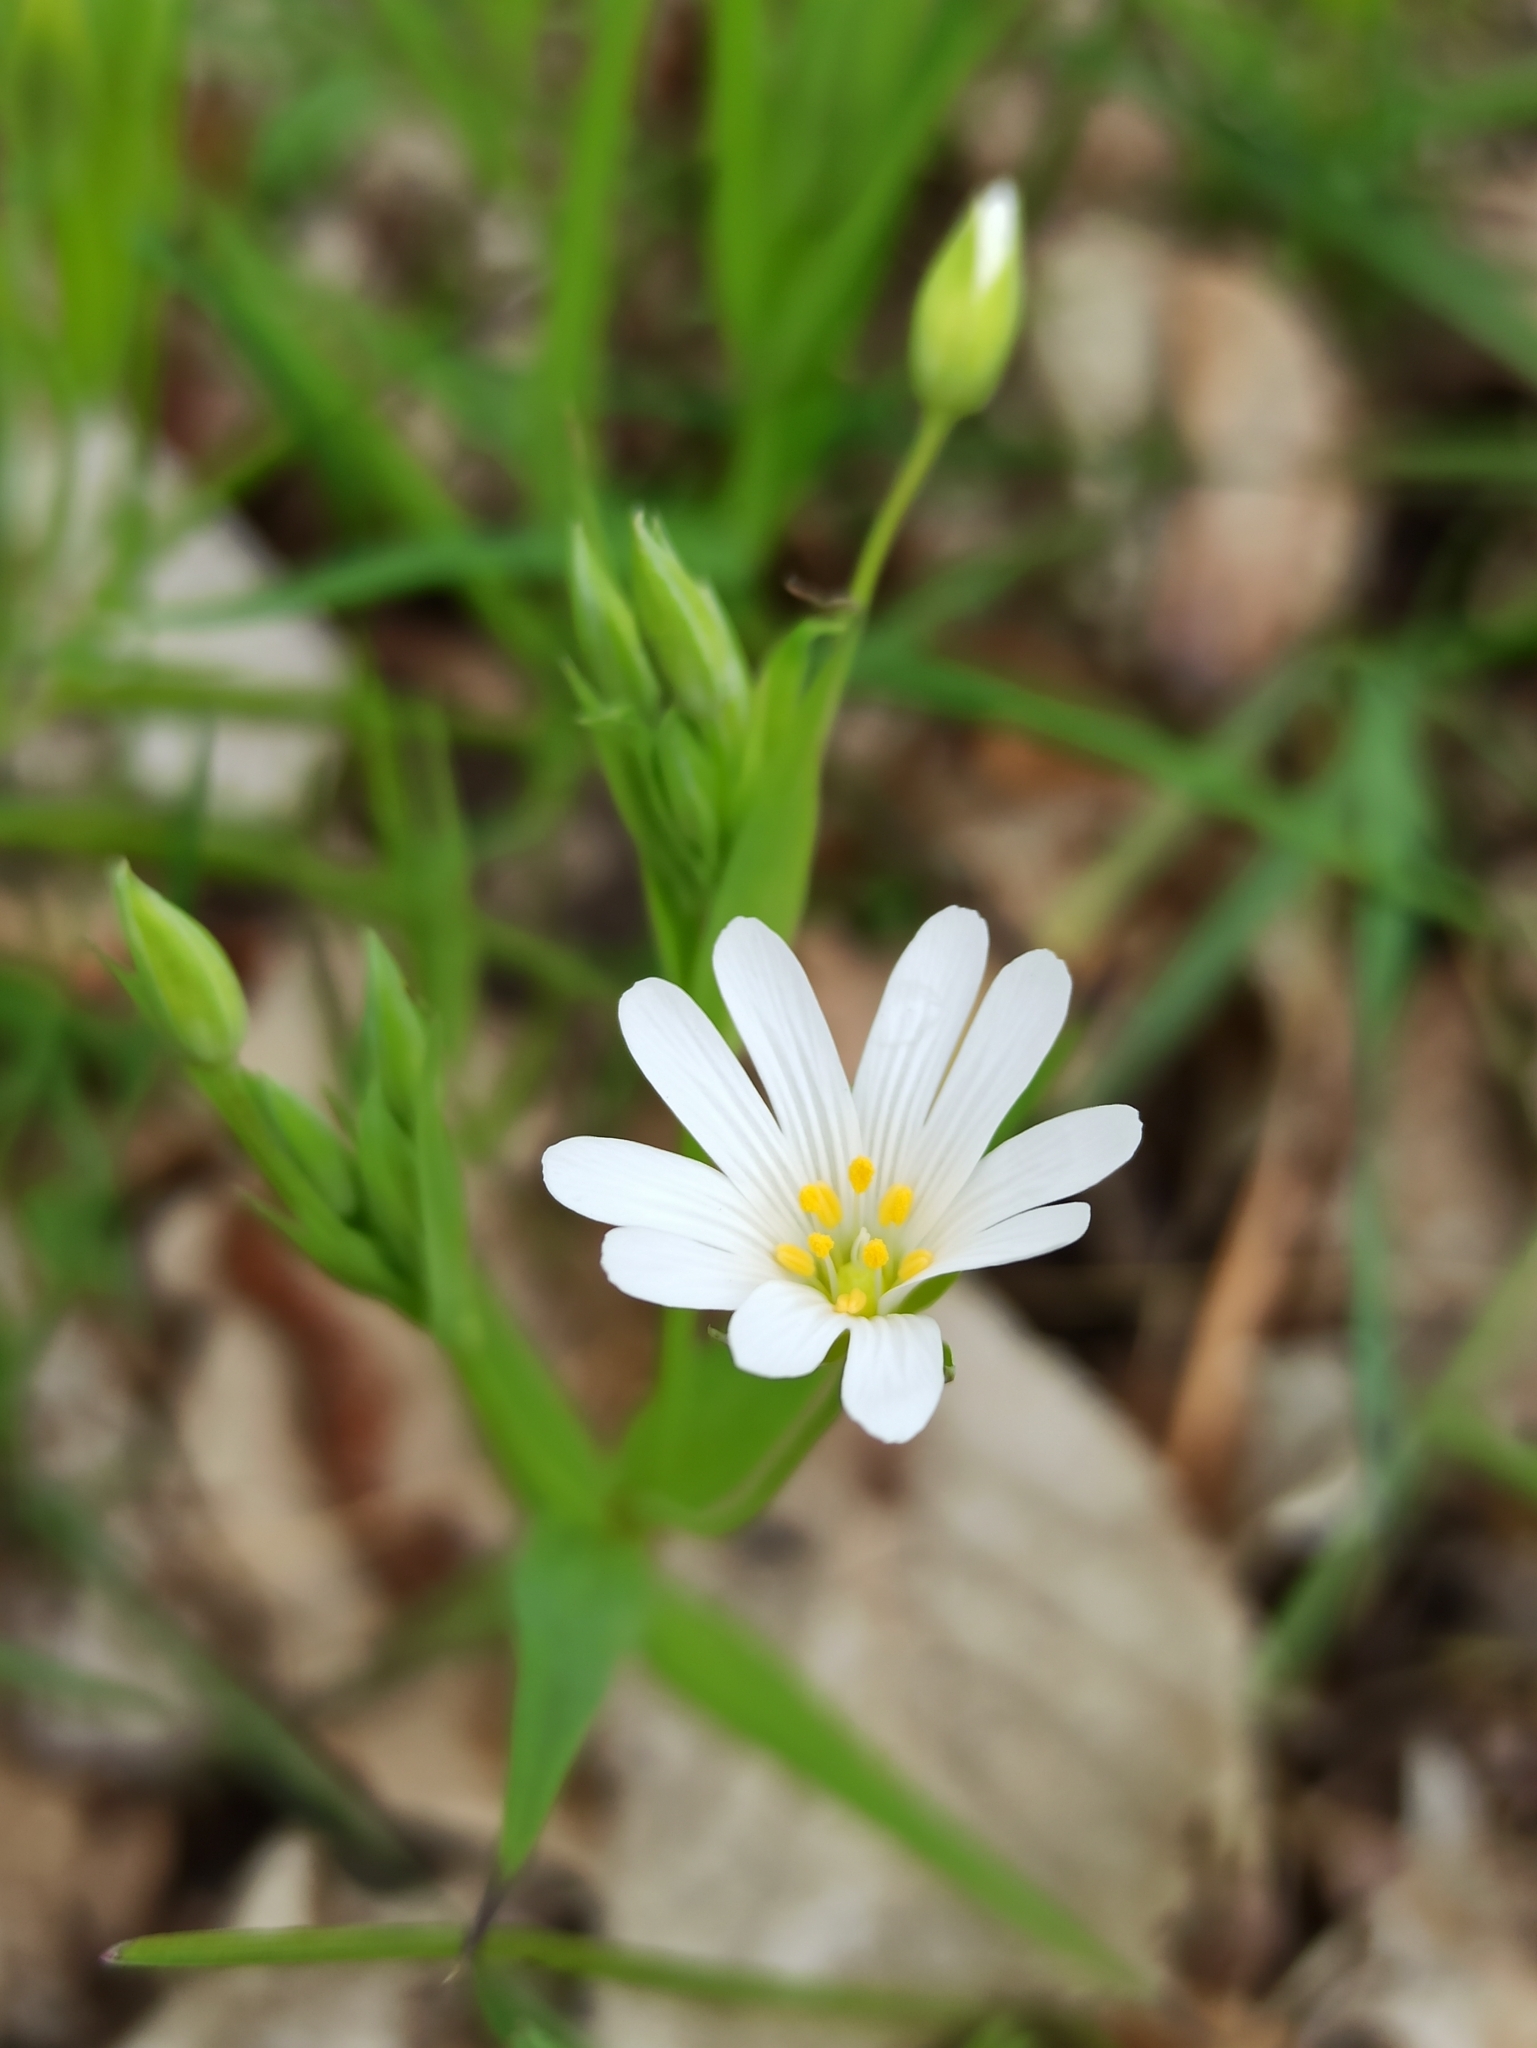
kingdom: Plantae
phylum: Tracheophyta
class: Magnoliopsida
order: Caryophyllales
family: Caryophyllaceae
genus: Rabelera
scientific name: Rabelera holostea
